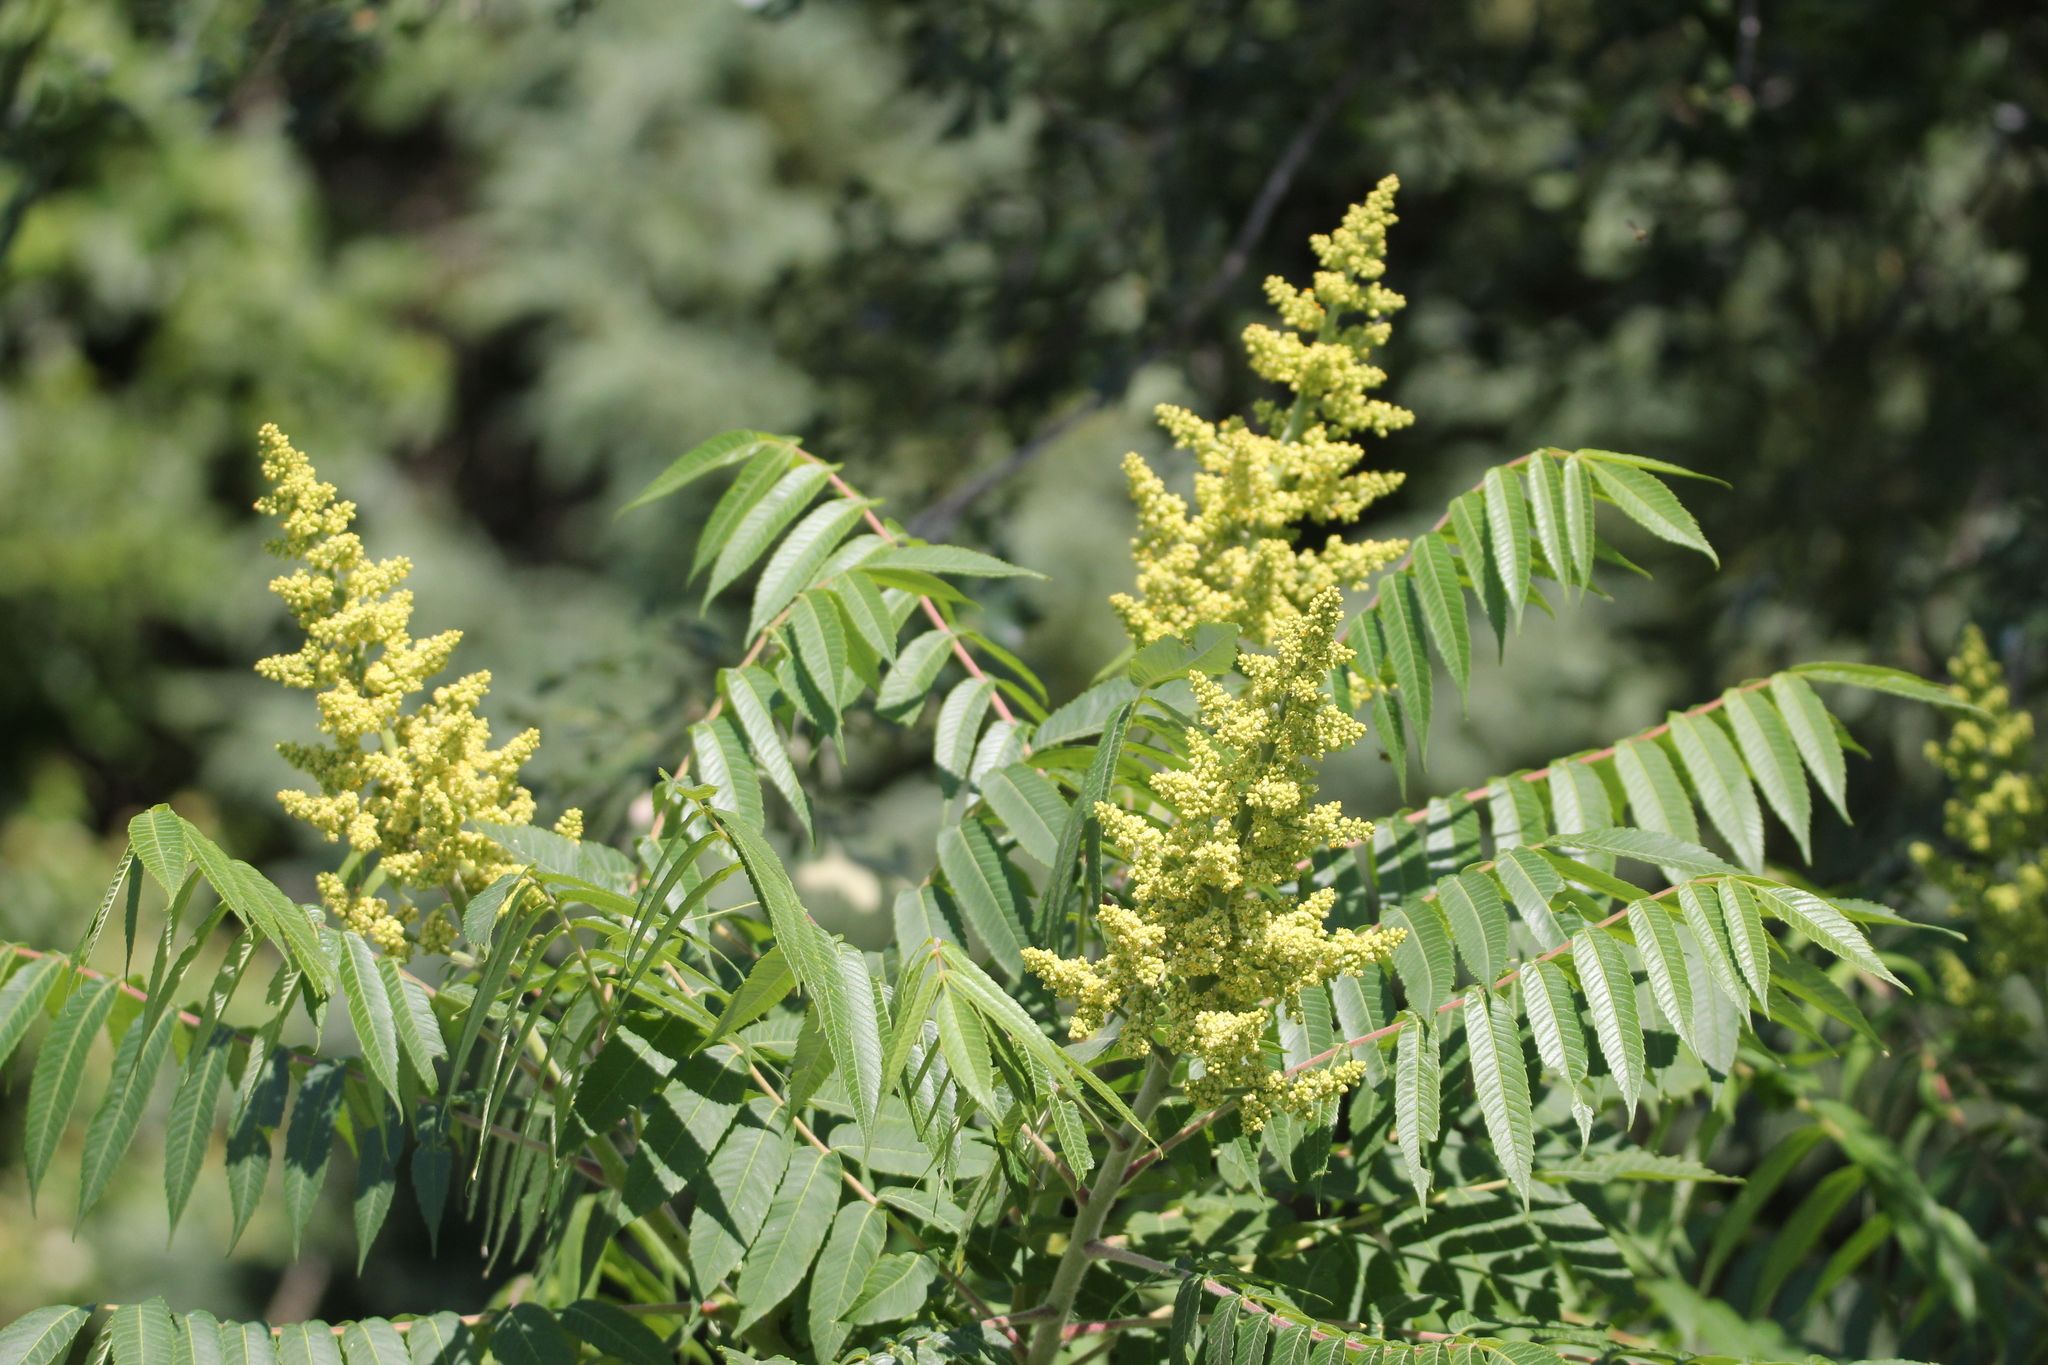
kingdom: Plantae
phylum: Tracheophyta
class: Magnoliopsida
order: Sapindales
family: Anacardiaceae
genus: Rhus
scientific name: Rhus typhina
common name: Staghorn sumac
